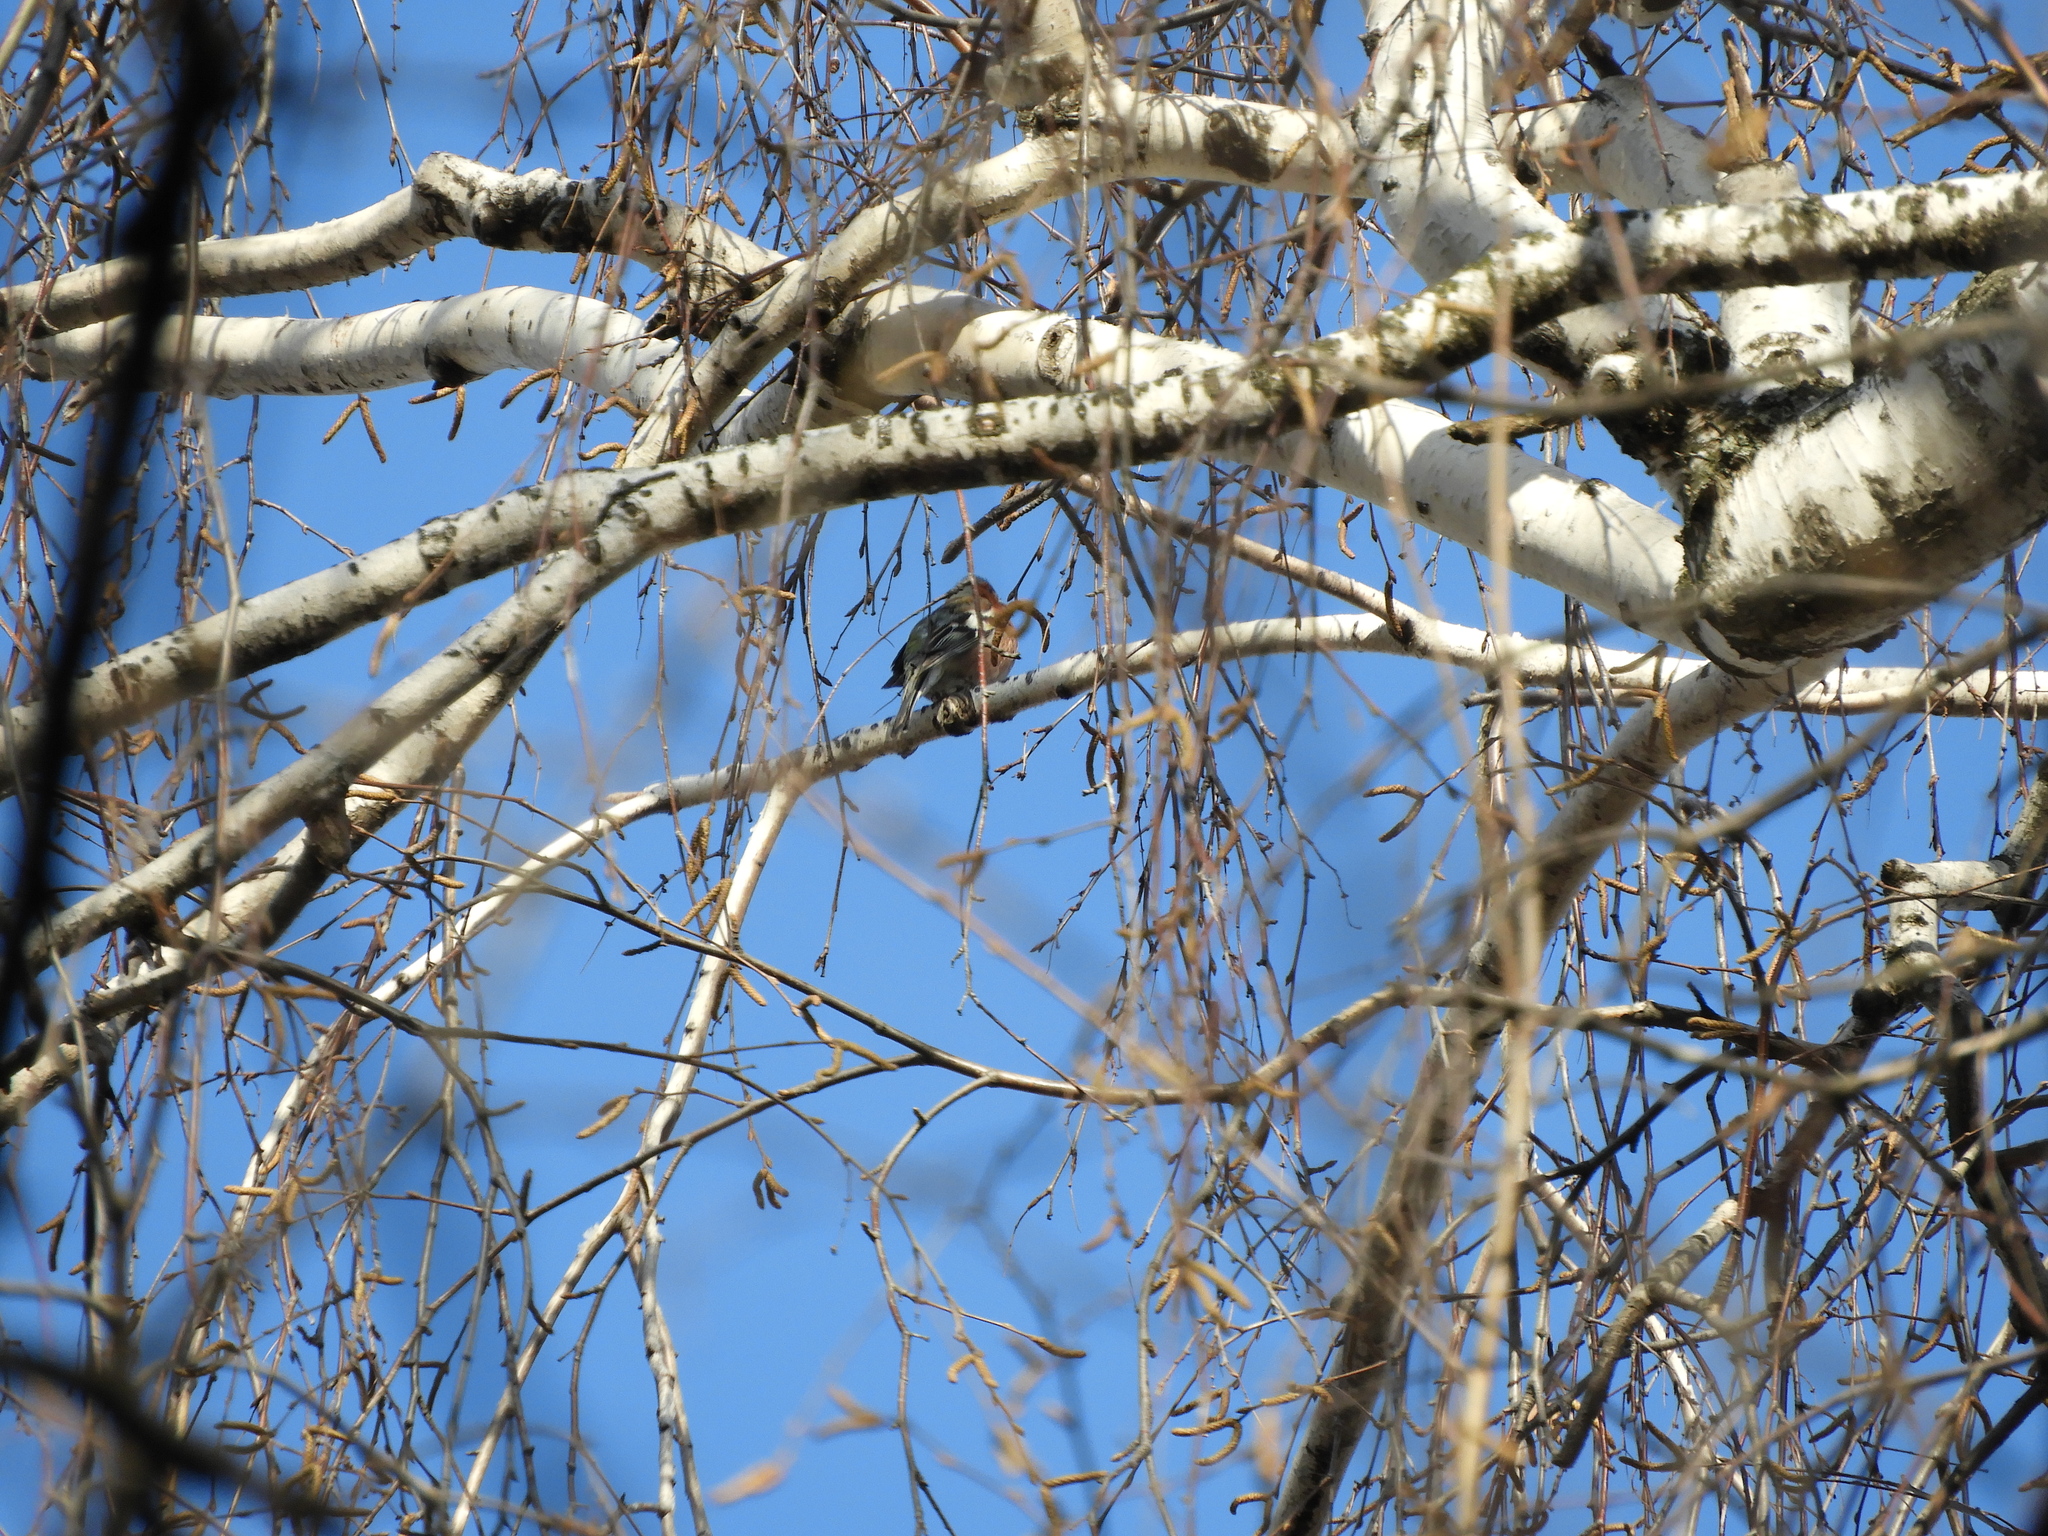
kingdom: Animalia
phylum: Chordata
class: Aves
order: Passeriformes
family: Fringillidae
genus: Fringilla
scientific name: Fringilla coelebs
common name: Common chaffinch
